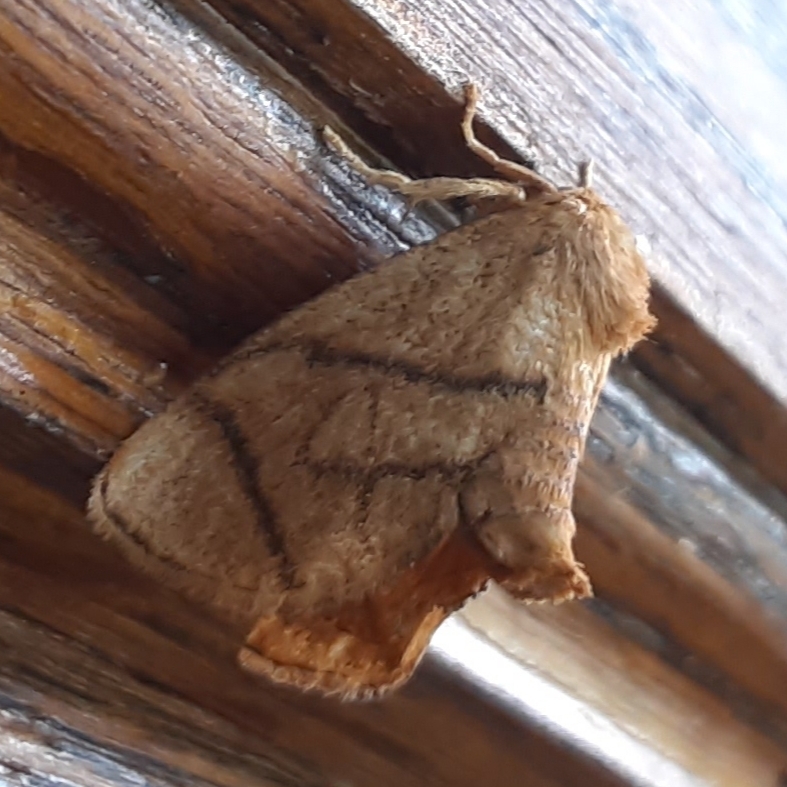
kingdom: Animalia
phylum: Arthropoda
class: Insecta
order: Lepidoptera
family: Limacodidae
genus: Apoda
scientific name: Apoda y-inversa
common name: Yellow-collared slug moth
